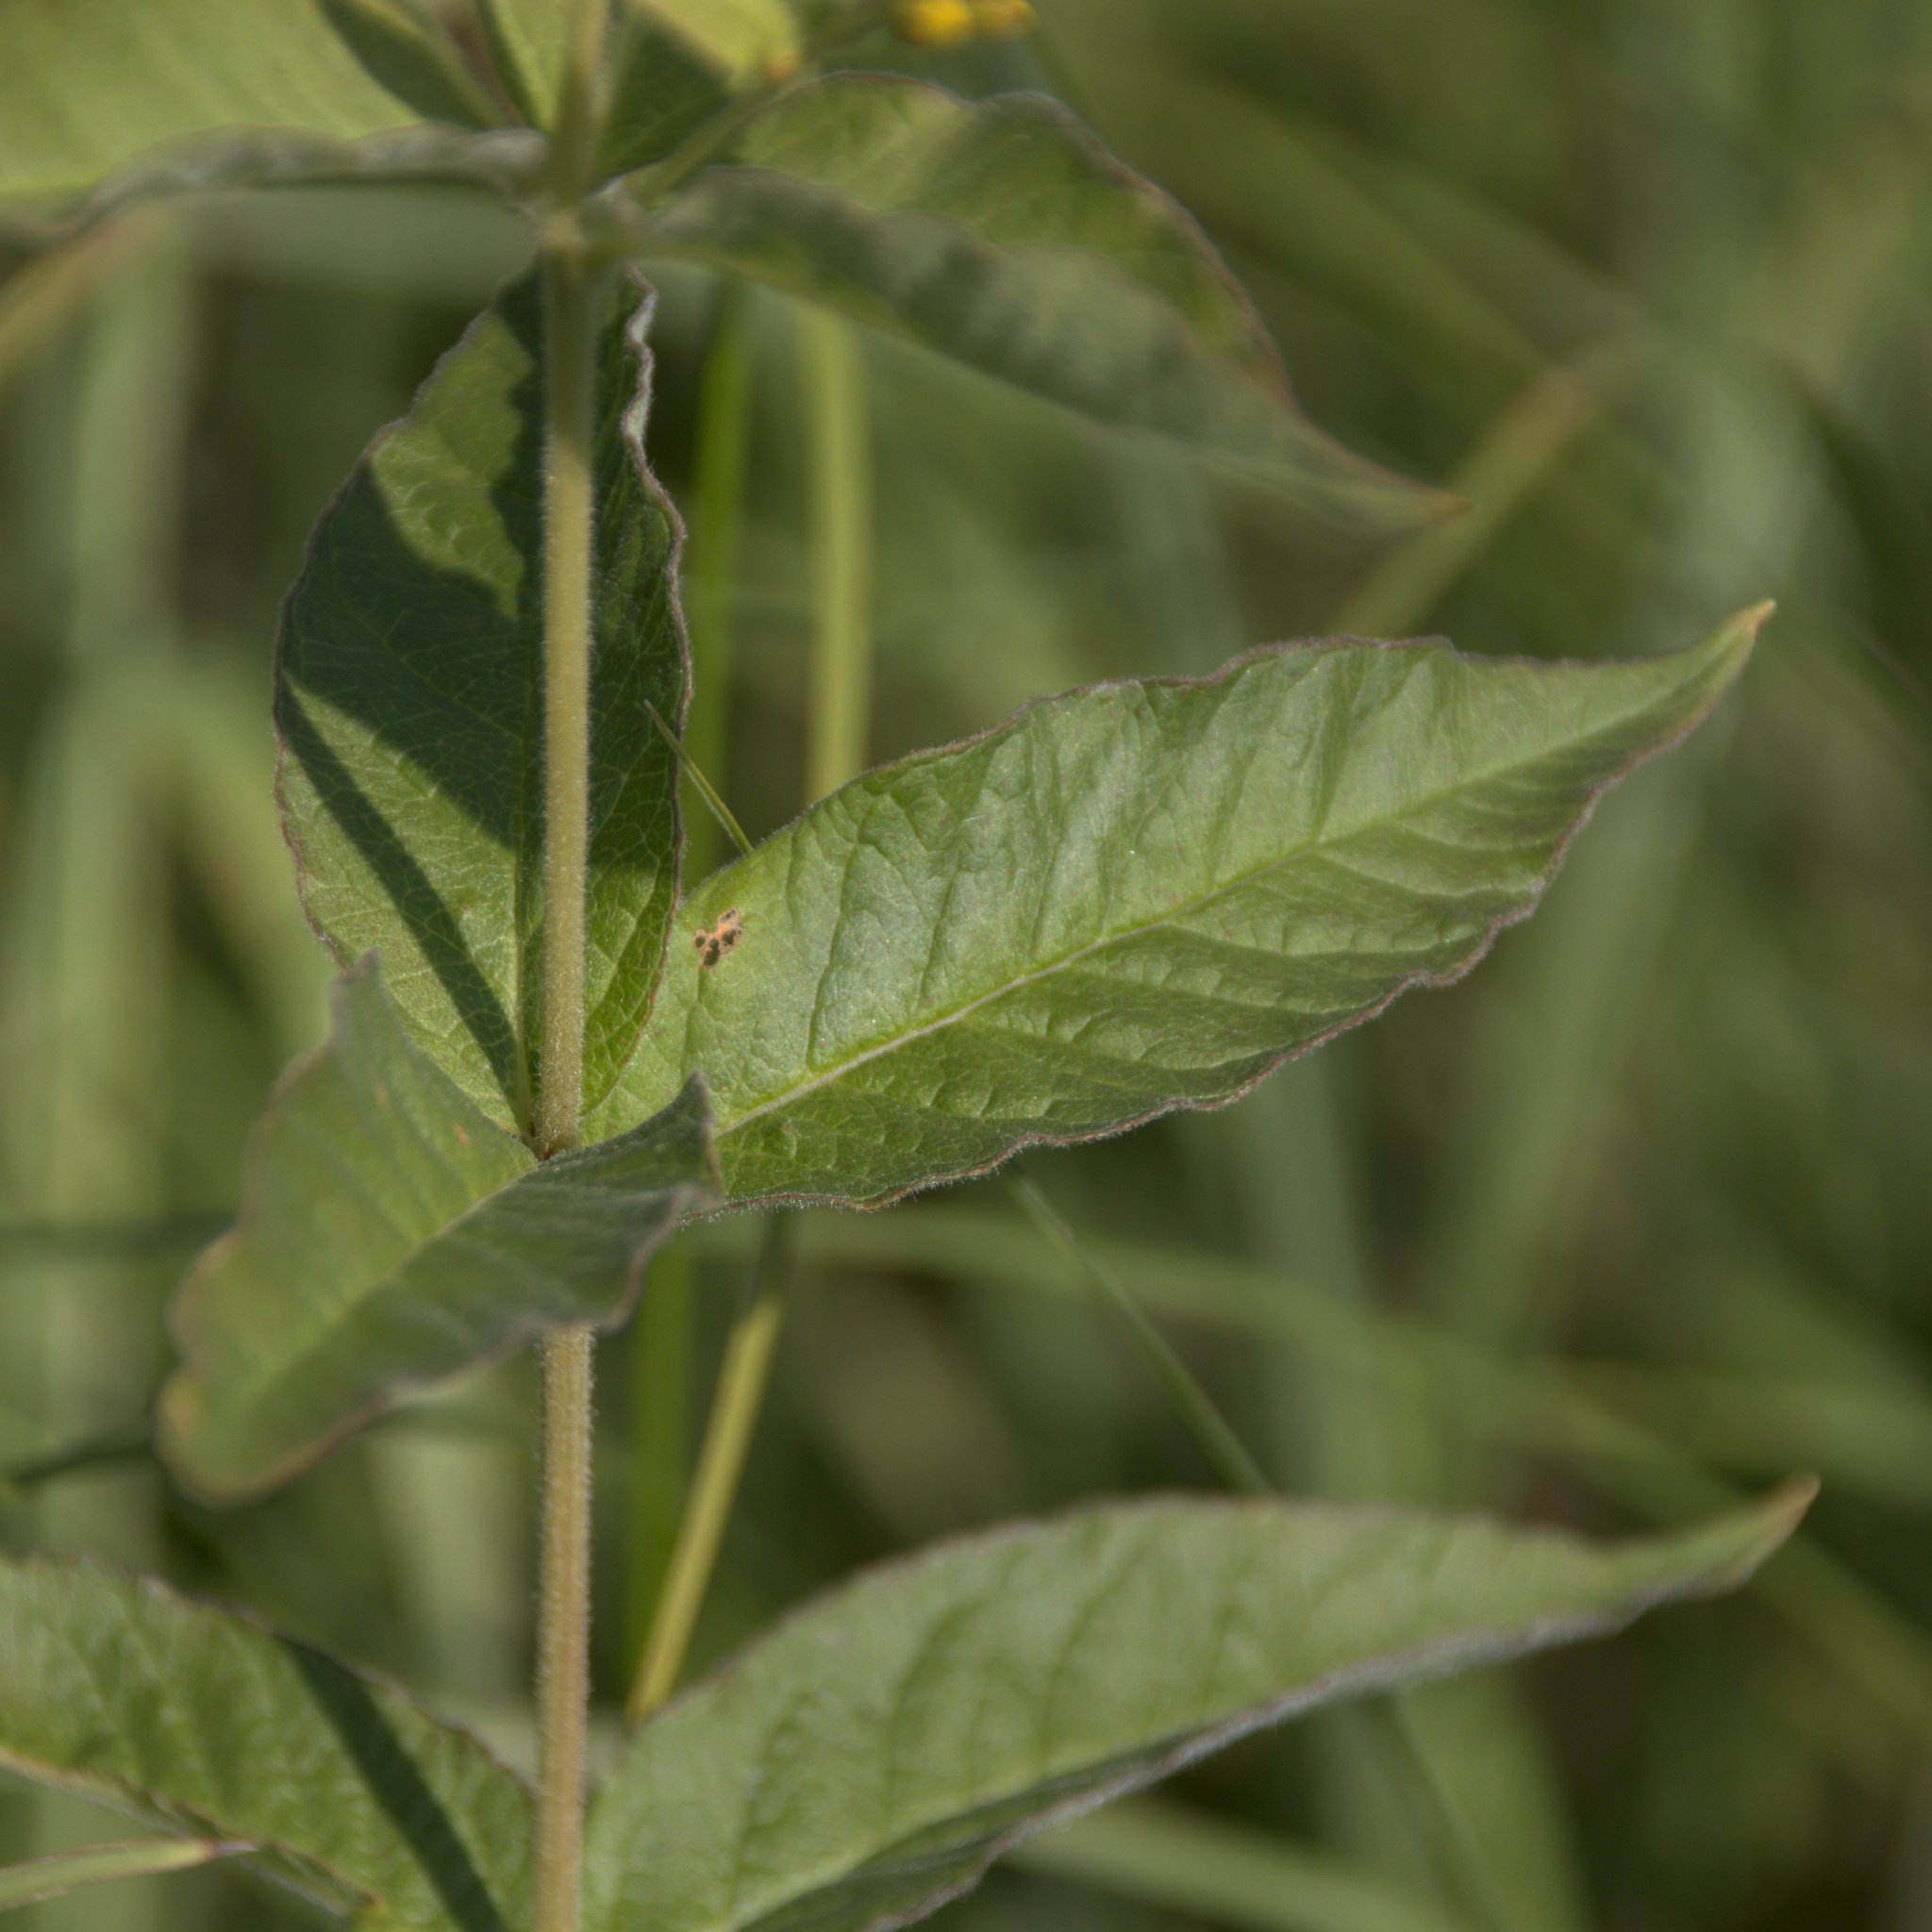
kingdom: Plantae
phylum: Tracheophyta
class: Magnoliopsida
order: Ericales
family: Primulaceae
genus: Lysimachia
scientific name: Lysimachia vulgaris
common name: Yellow loosestrife
